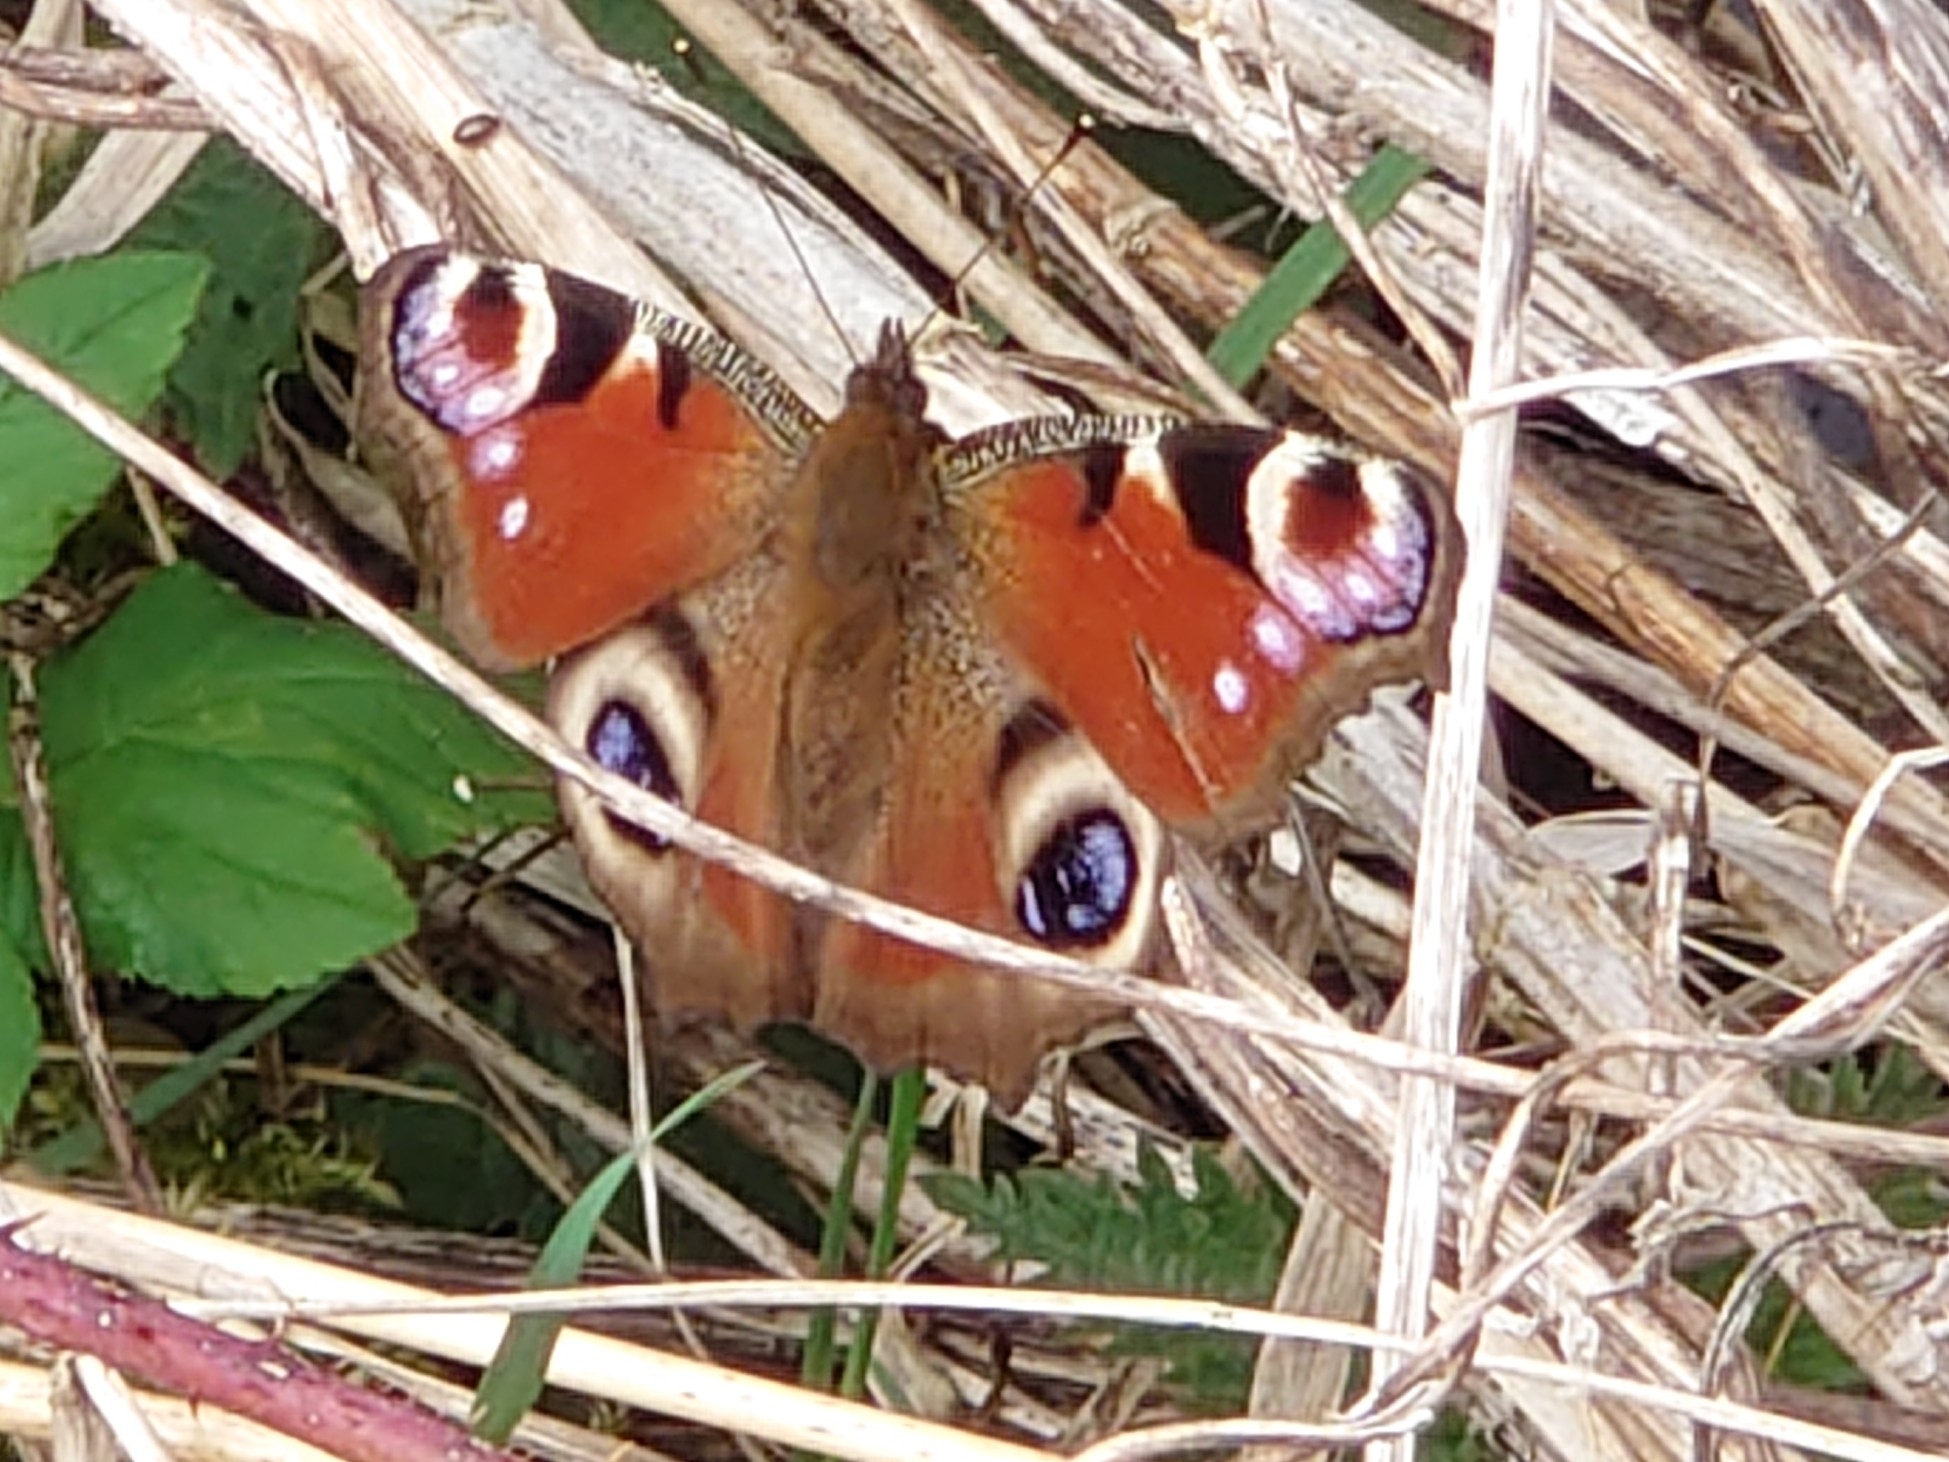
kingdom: Animalia
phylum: Arthropoda
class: Insecta
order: Lepidoptera
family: Nymphalidae
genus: Aglais
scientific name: Aglais io
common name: Peacock
